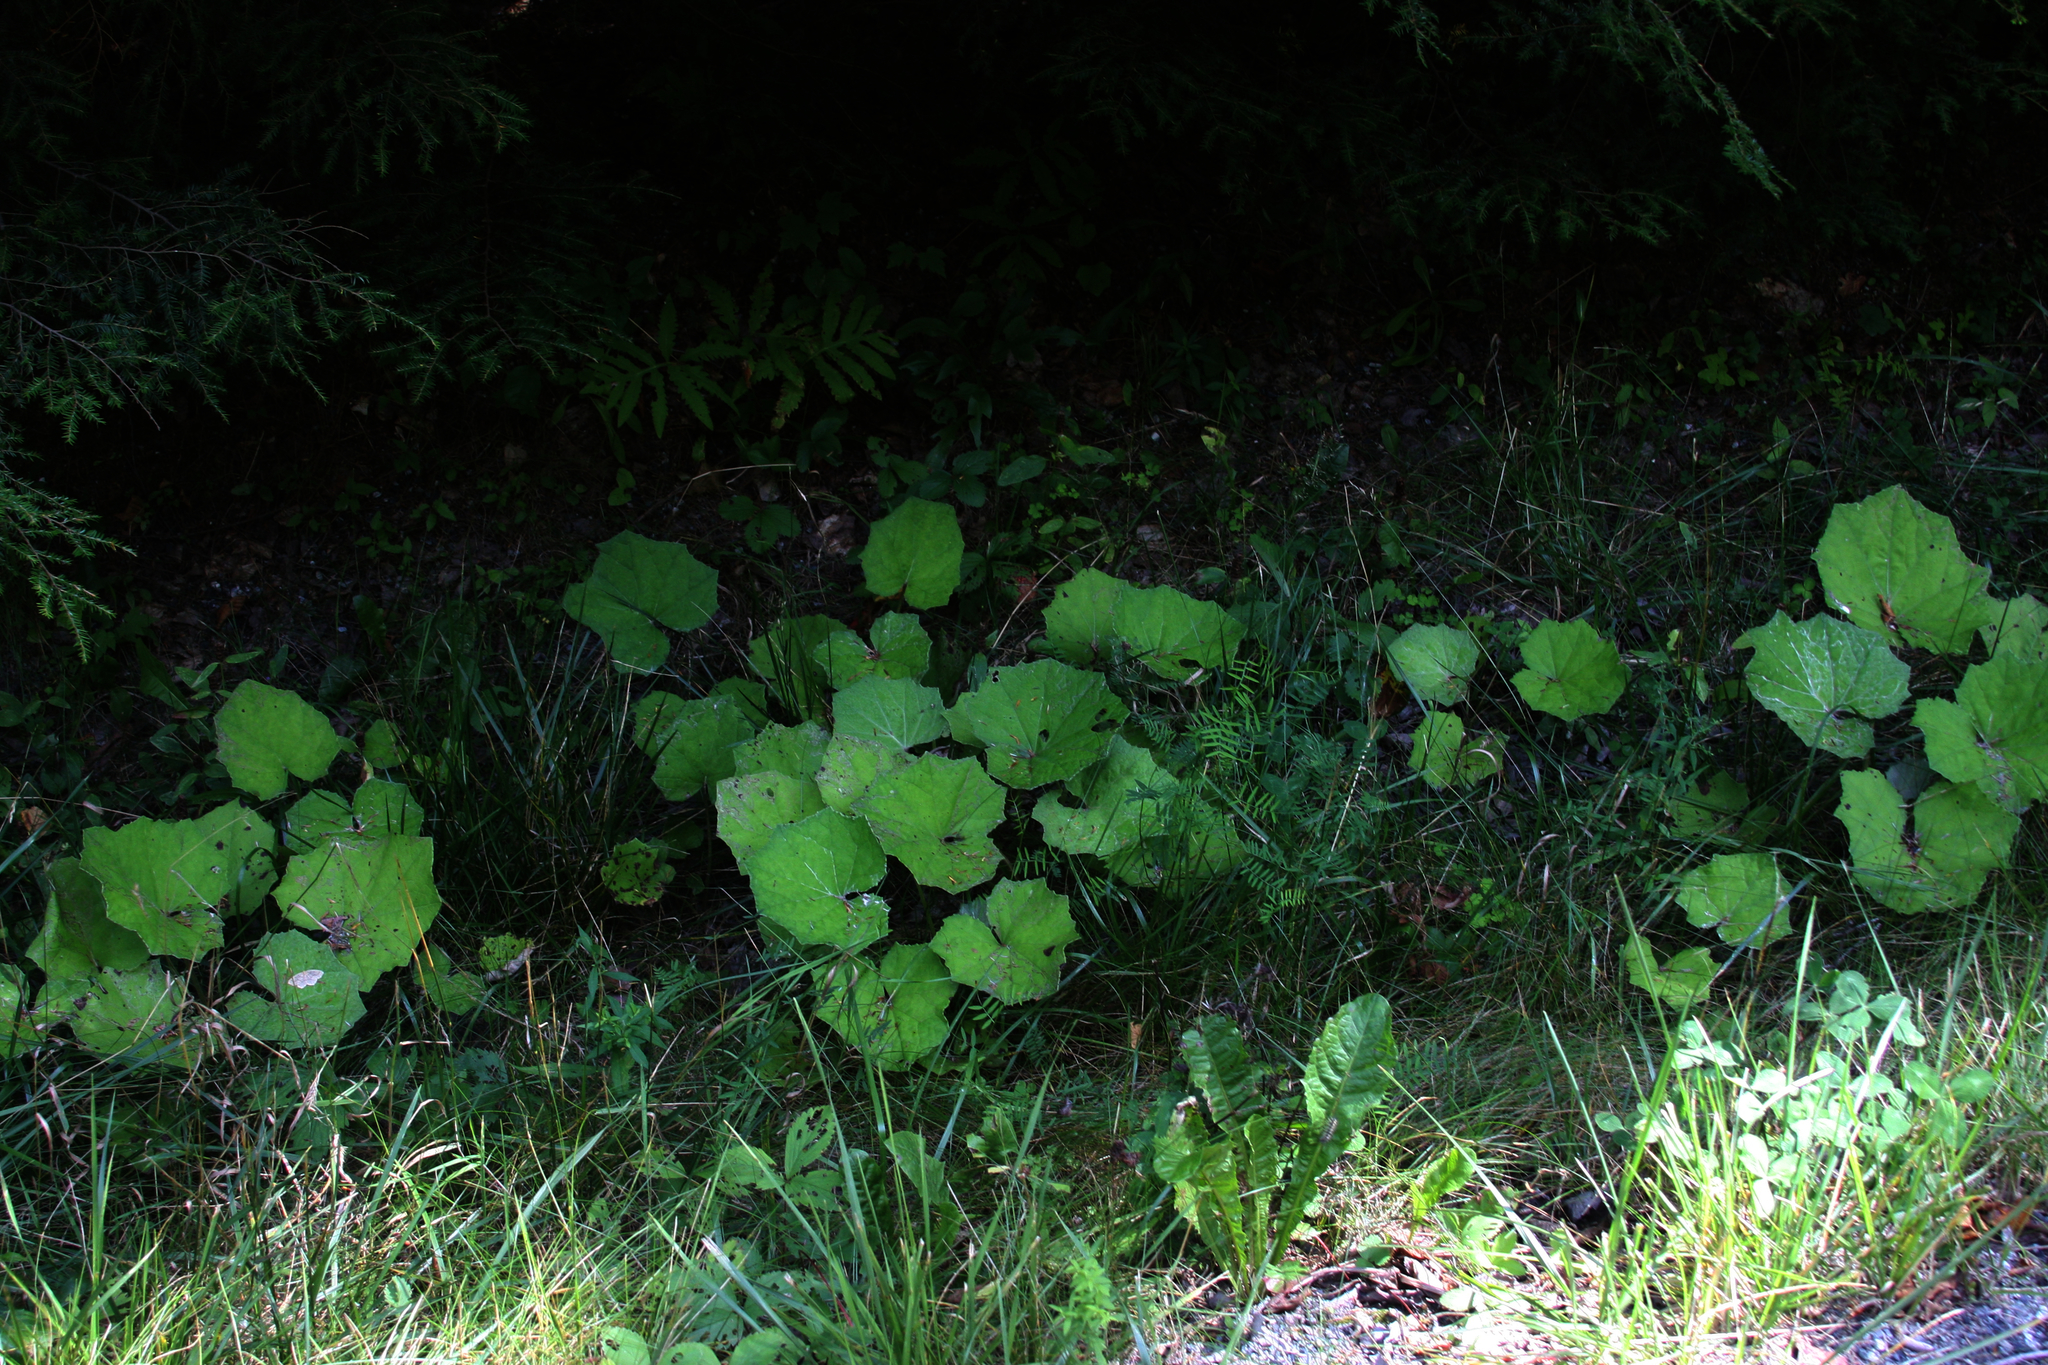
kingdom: Plantae
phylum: Tracheophyta
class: Magnoliopsida
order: Asterales
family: Asteraceae
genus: Tussilago
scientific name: Tussilago farfara
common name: Coltsfoot
